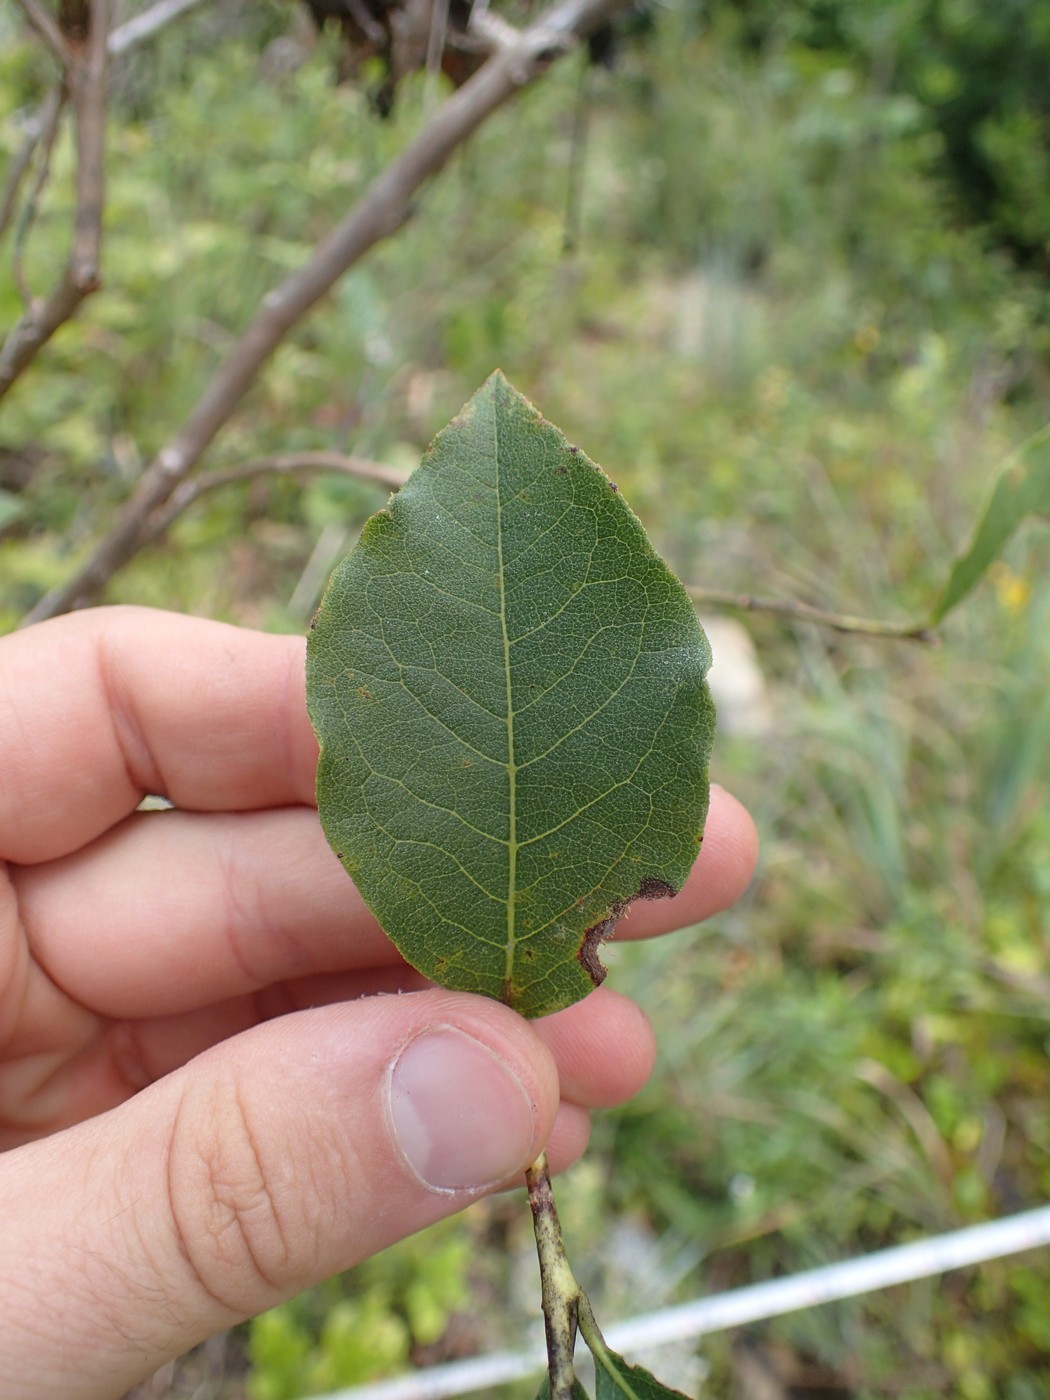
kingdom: Plantae
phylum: Tracheophyta
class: Magnoliopsida
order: Ericales
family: Ericaceae
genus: Lyonia
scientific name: Lyonia ligustrina
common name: Maleberry
